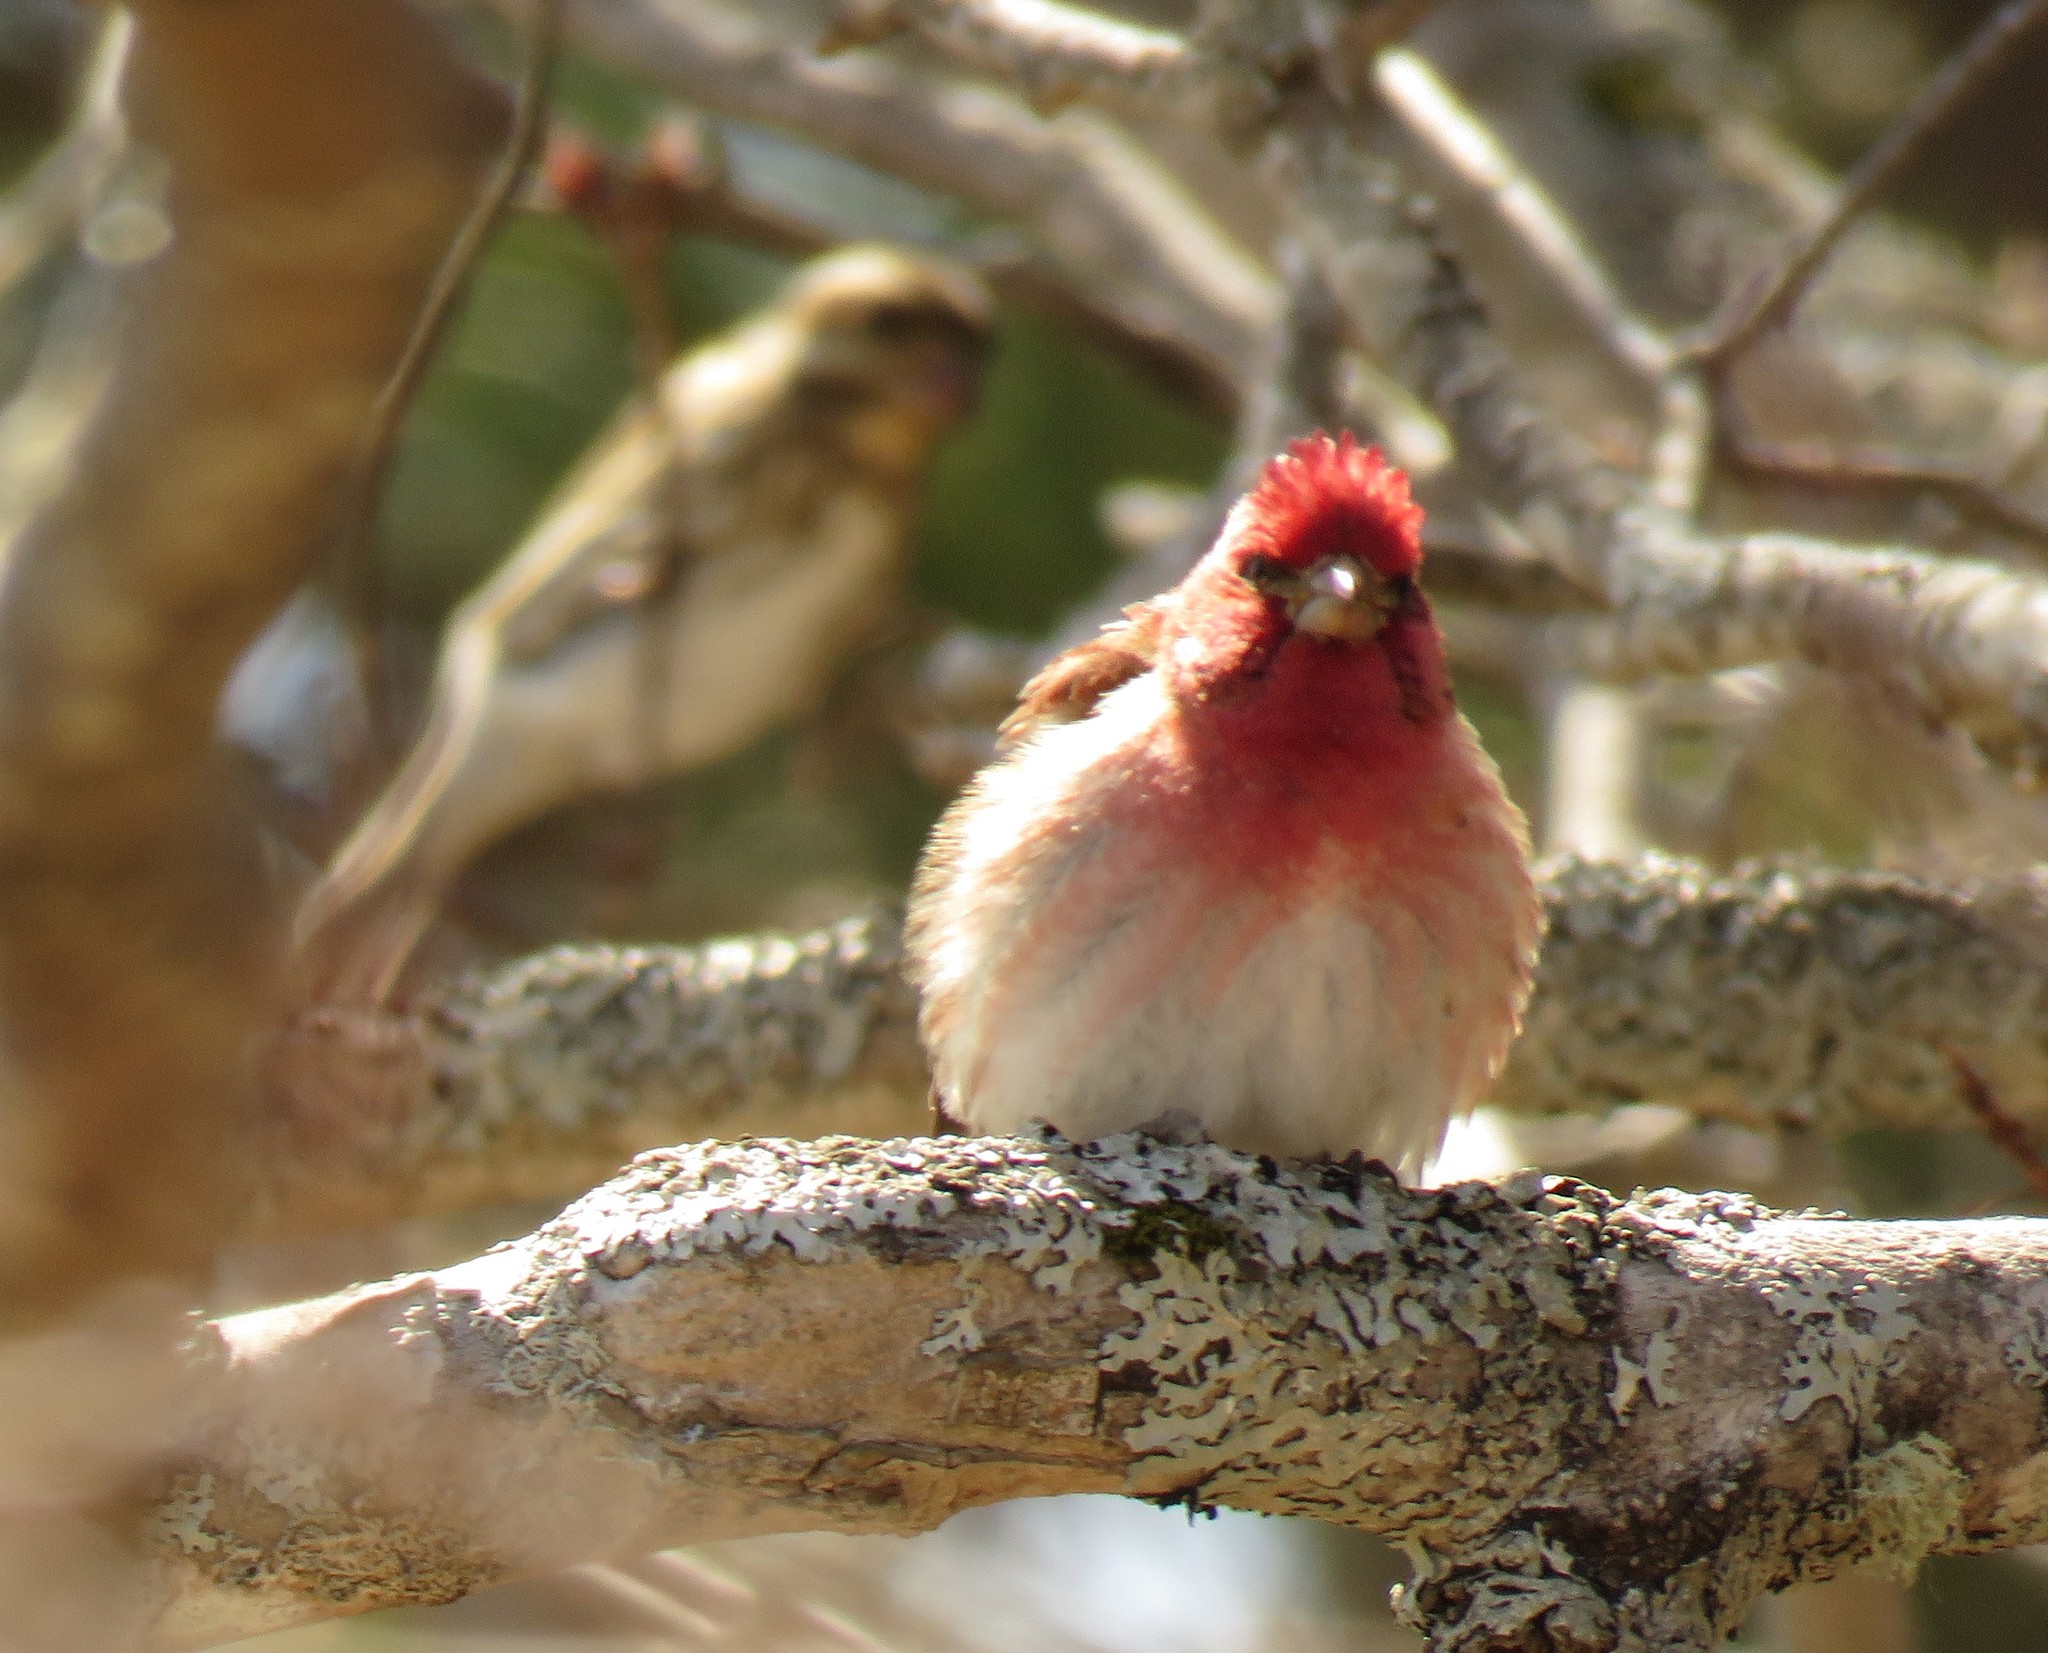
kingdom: Animalia
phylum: Chordata
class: Aves
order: Passeriformes
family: Fringillidae
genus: Haemorhous
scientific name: Haemorhous purpureus
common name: Purple finch
